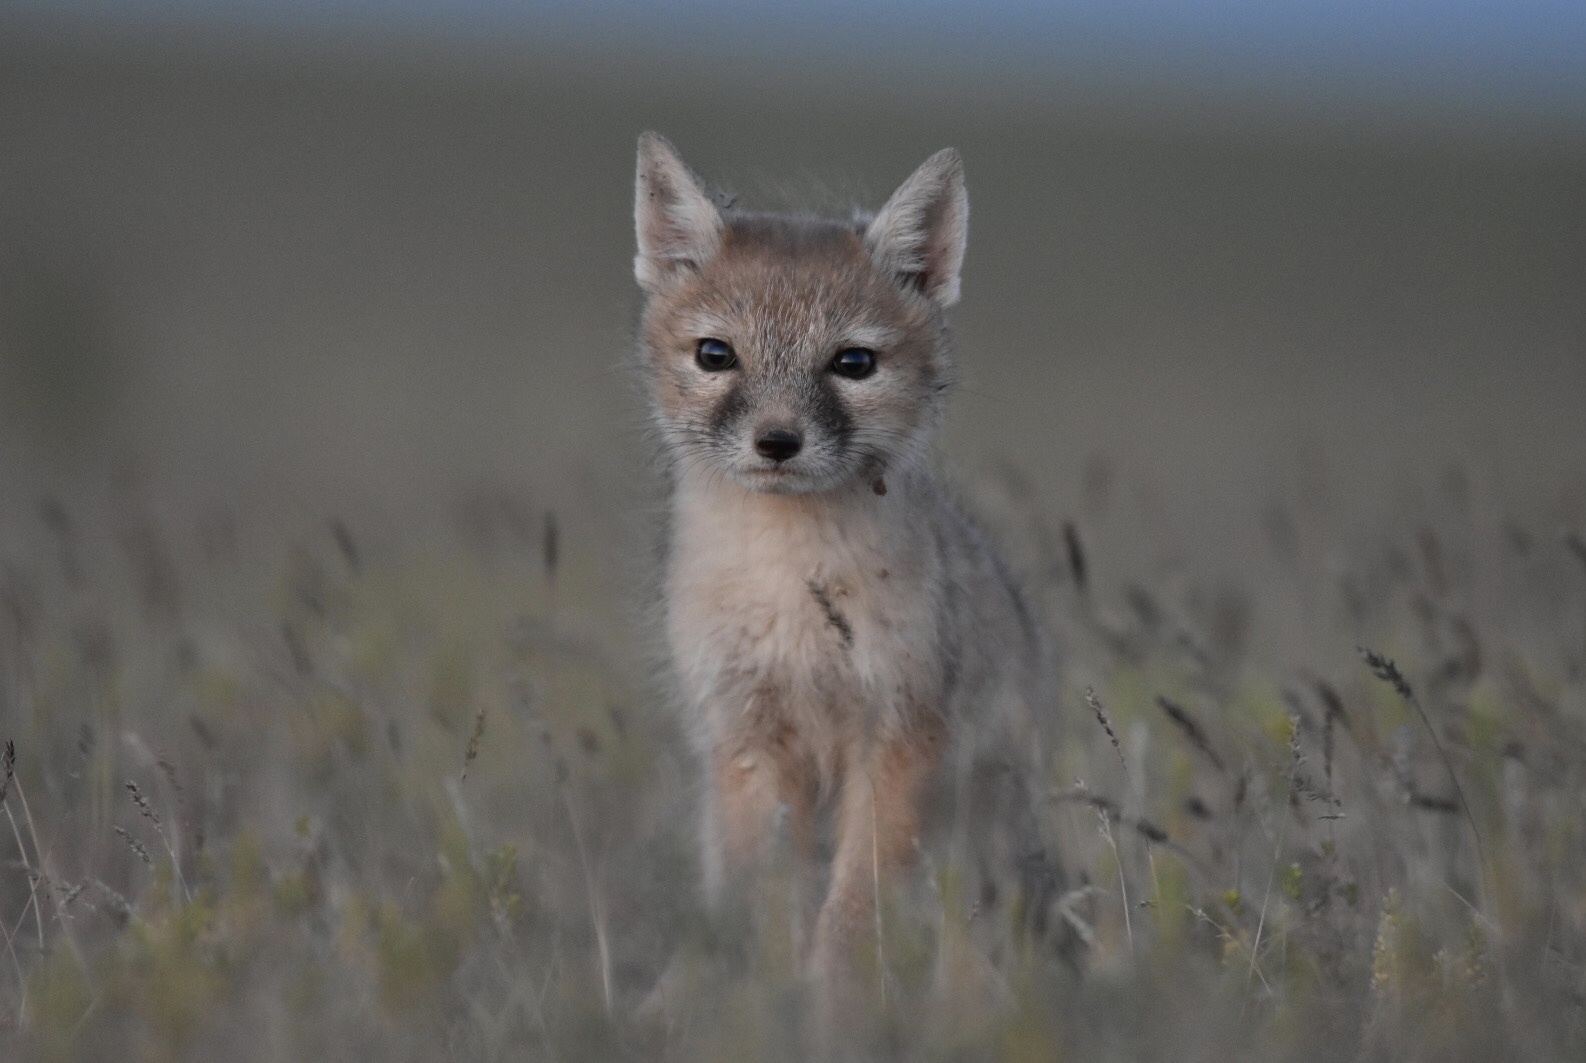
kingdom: Animalia
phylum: Chordata
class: Mammalia
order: Carnivora
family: Canidae
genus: Vulpes
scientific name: Vulpes corsac
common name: Corsac fox
